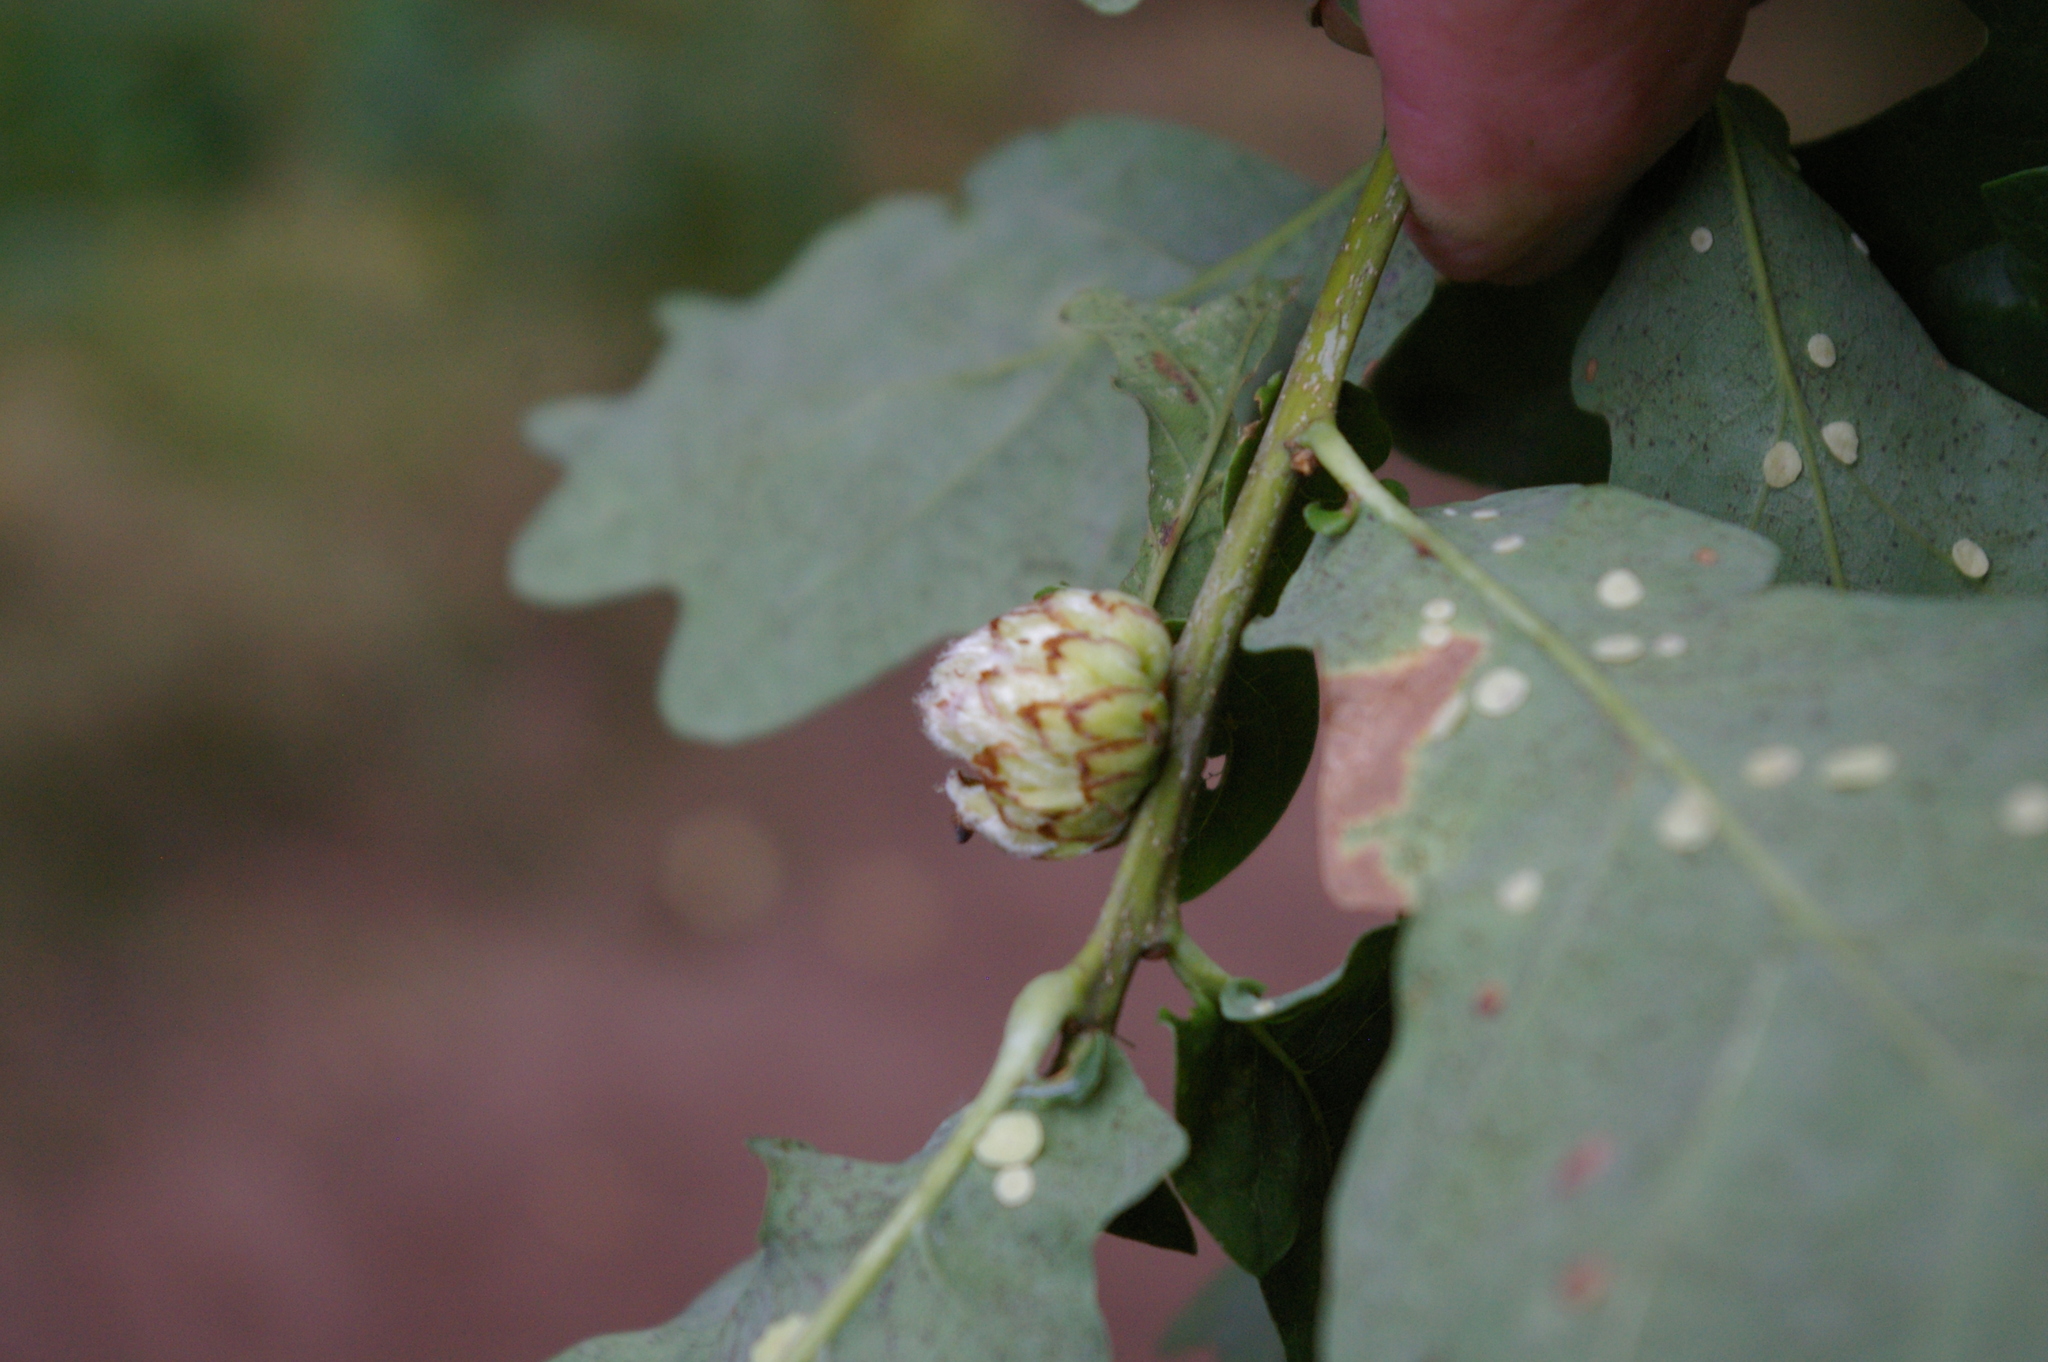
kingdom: Animalia
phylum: Arthropoda
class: Insecta
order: Hymenoptera
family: Cynipidae
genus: Andricus
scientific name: Andricus foecundatrix
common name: Artichoke gall
